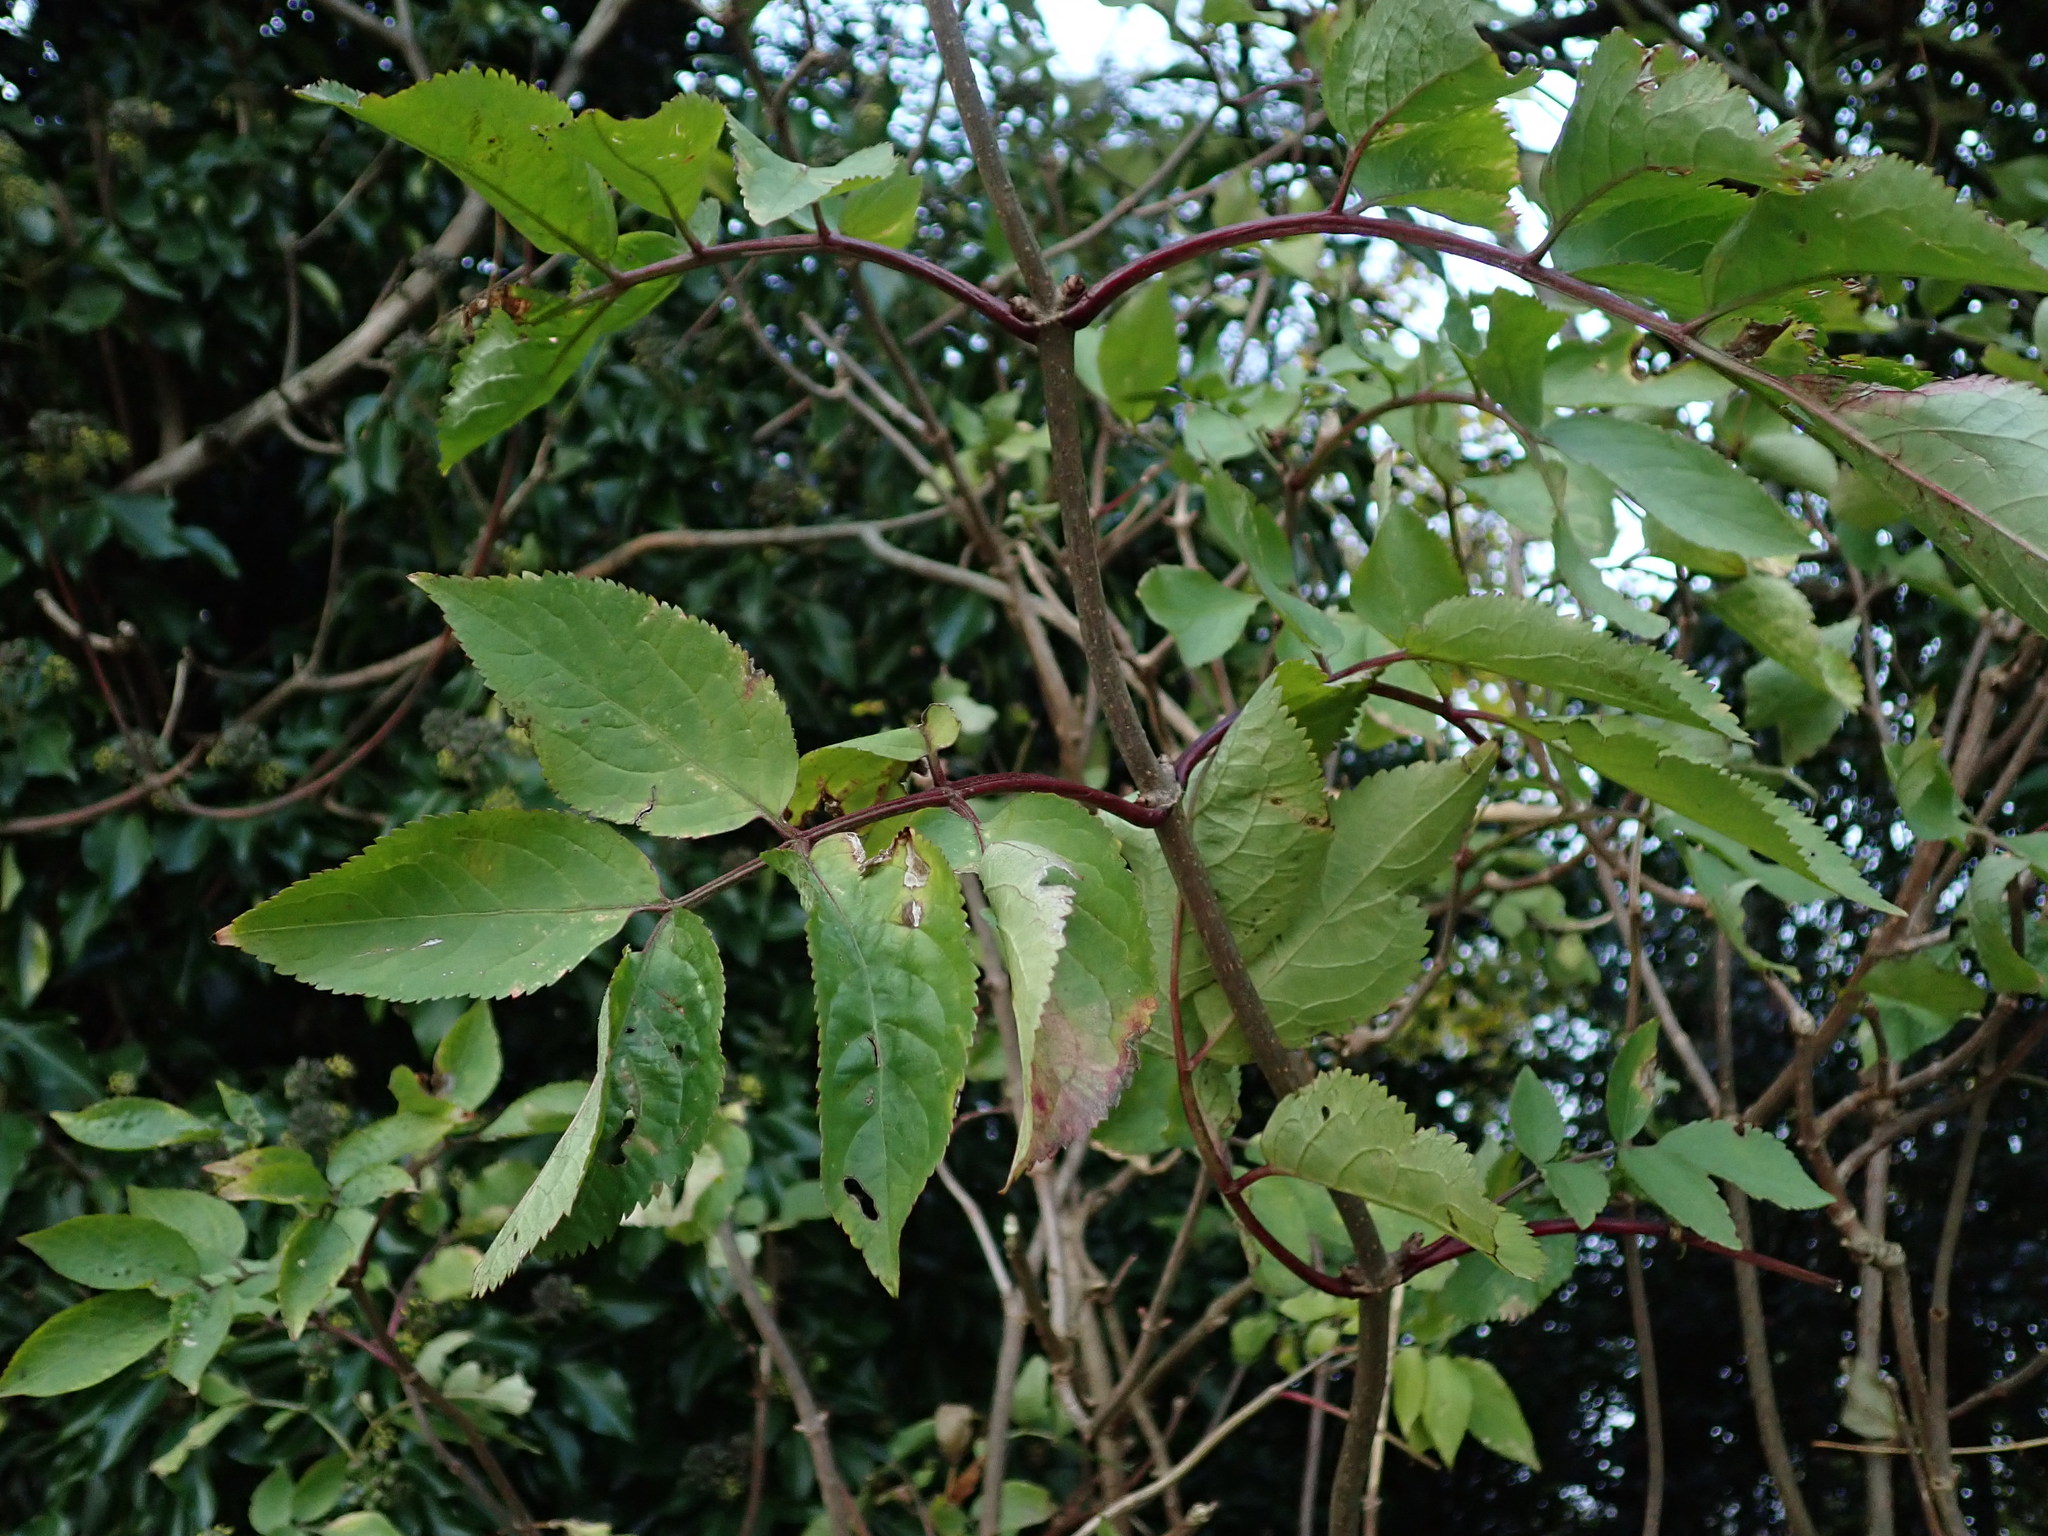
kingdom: Plantae
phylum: Tracheophyta
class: Magnoliopsida
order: Dipsacales
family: Viburnaceae
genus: Sambucus
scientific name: Sambucus nigra
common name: Elder
